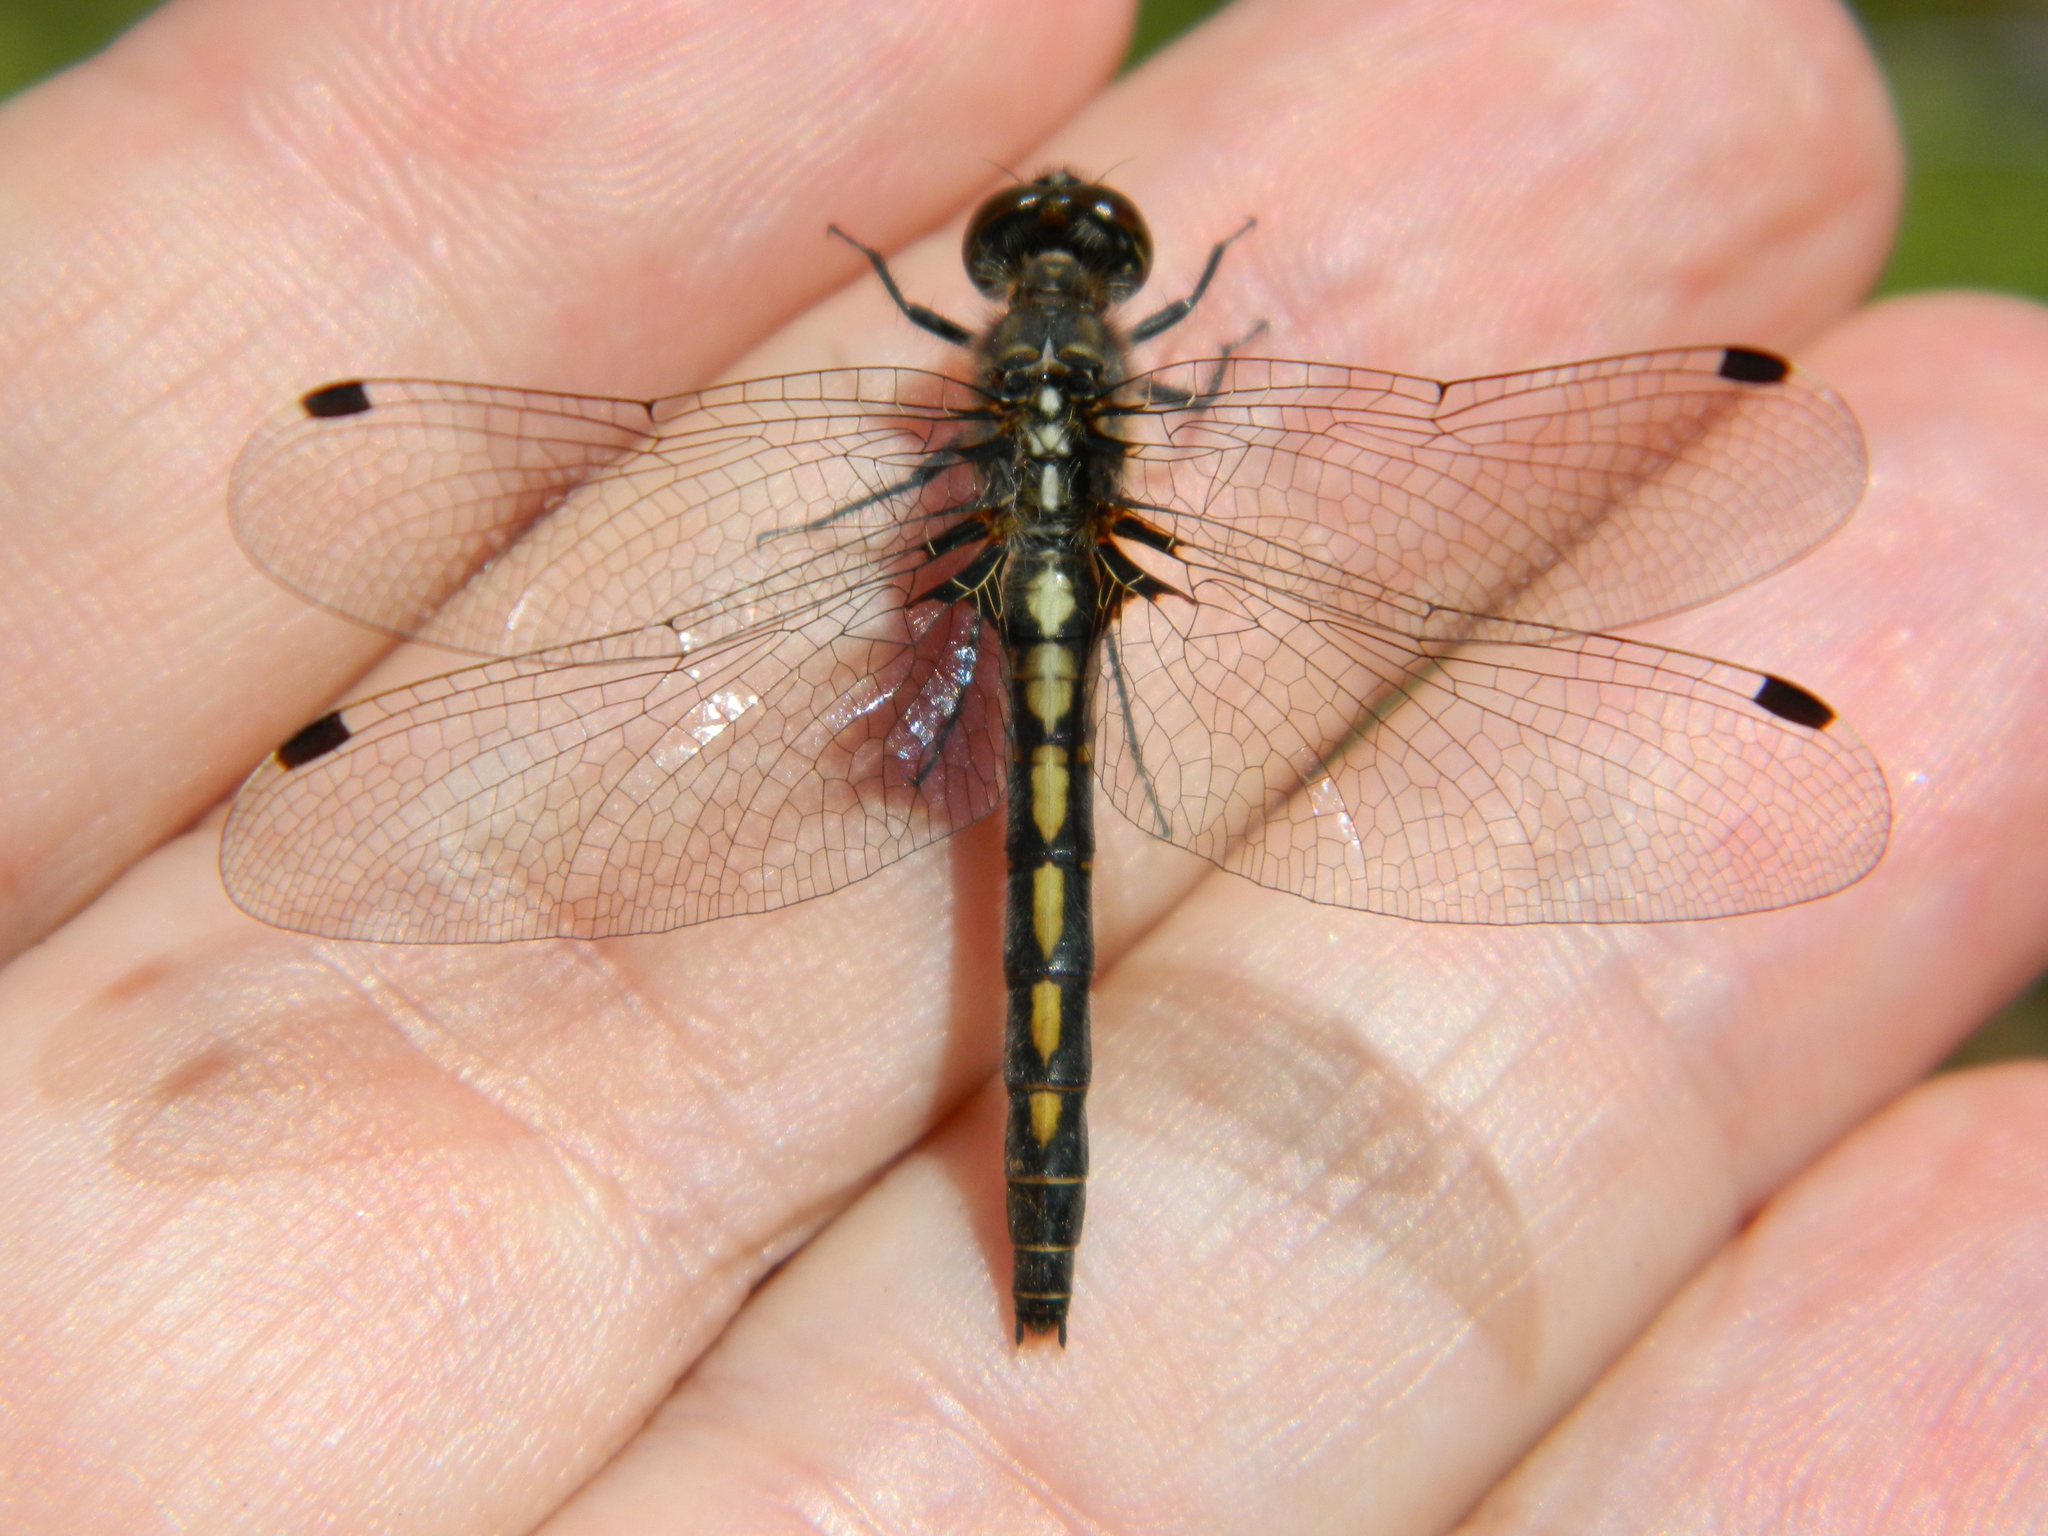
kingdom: Animalia
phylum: Arthropoda
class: Insecta
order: Odonata
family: Libellulidae
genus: Leucorrhinia
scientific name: Leucorrhinia hudsonica
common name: Hudsonian whiteface
